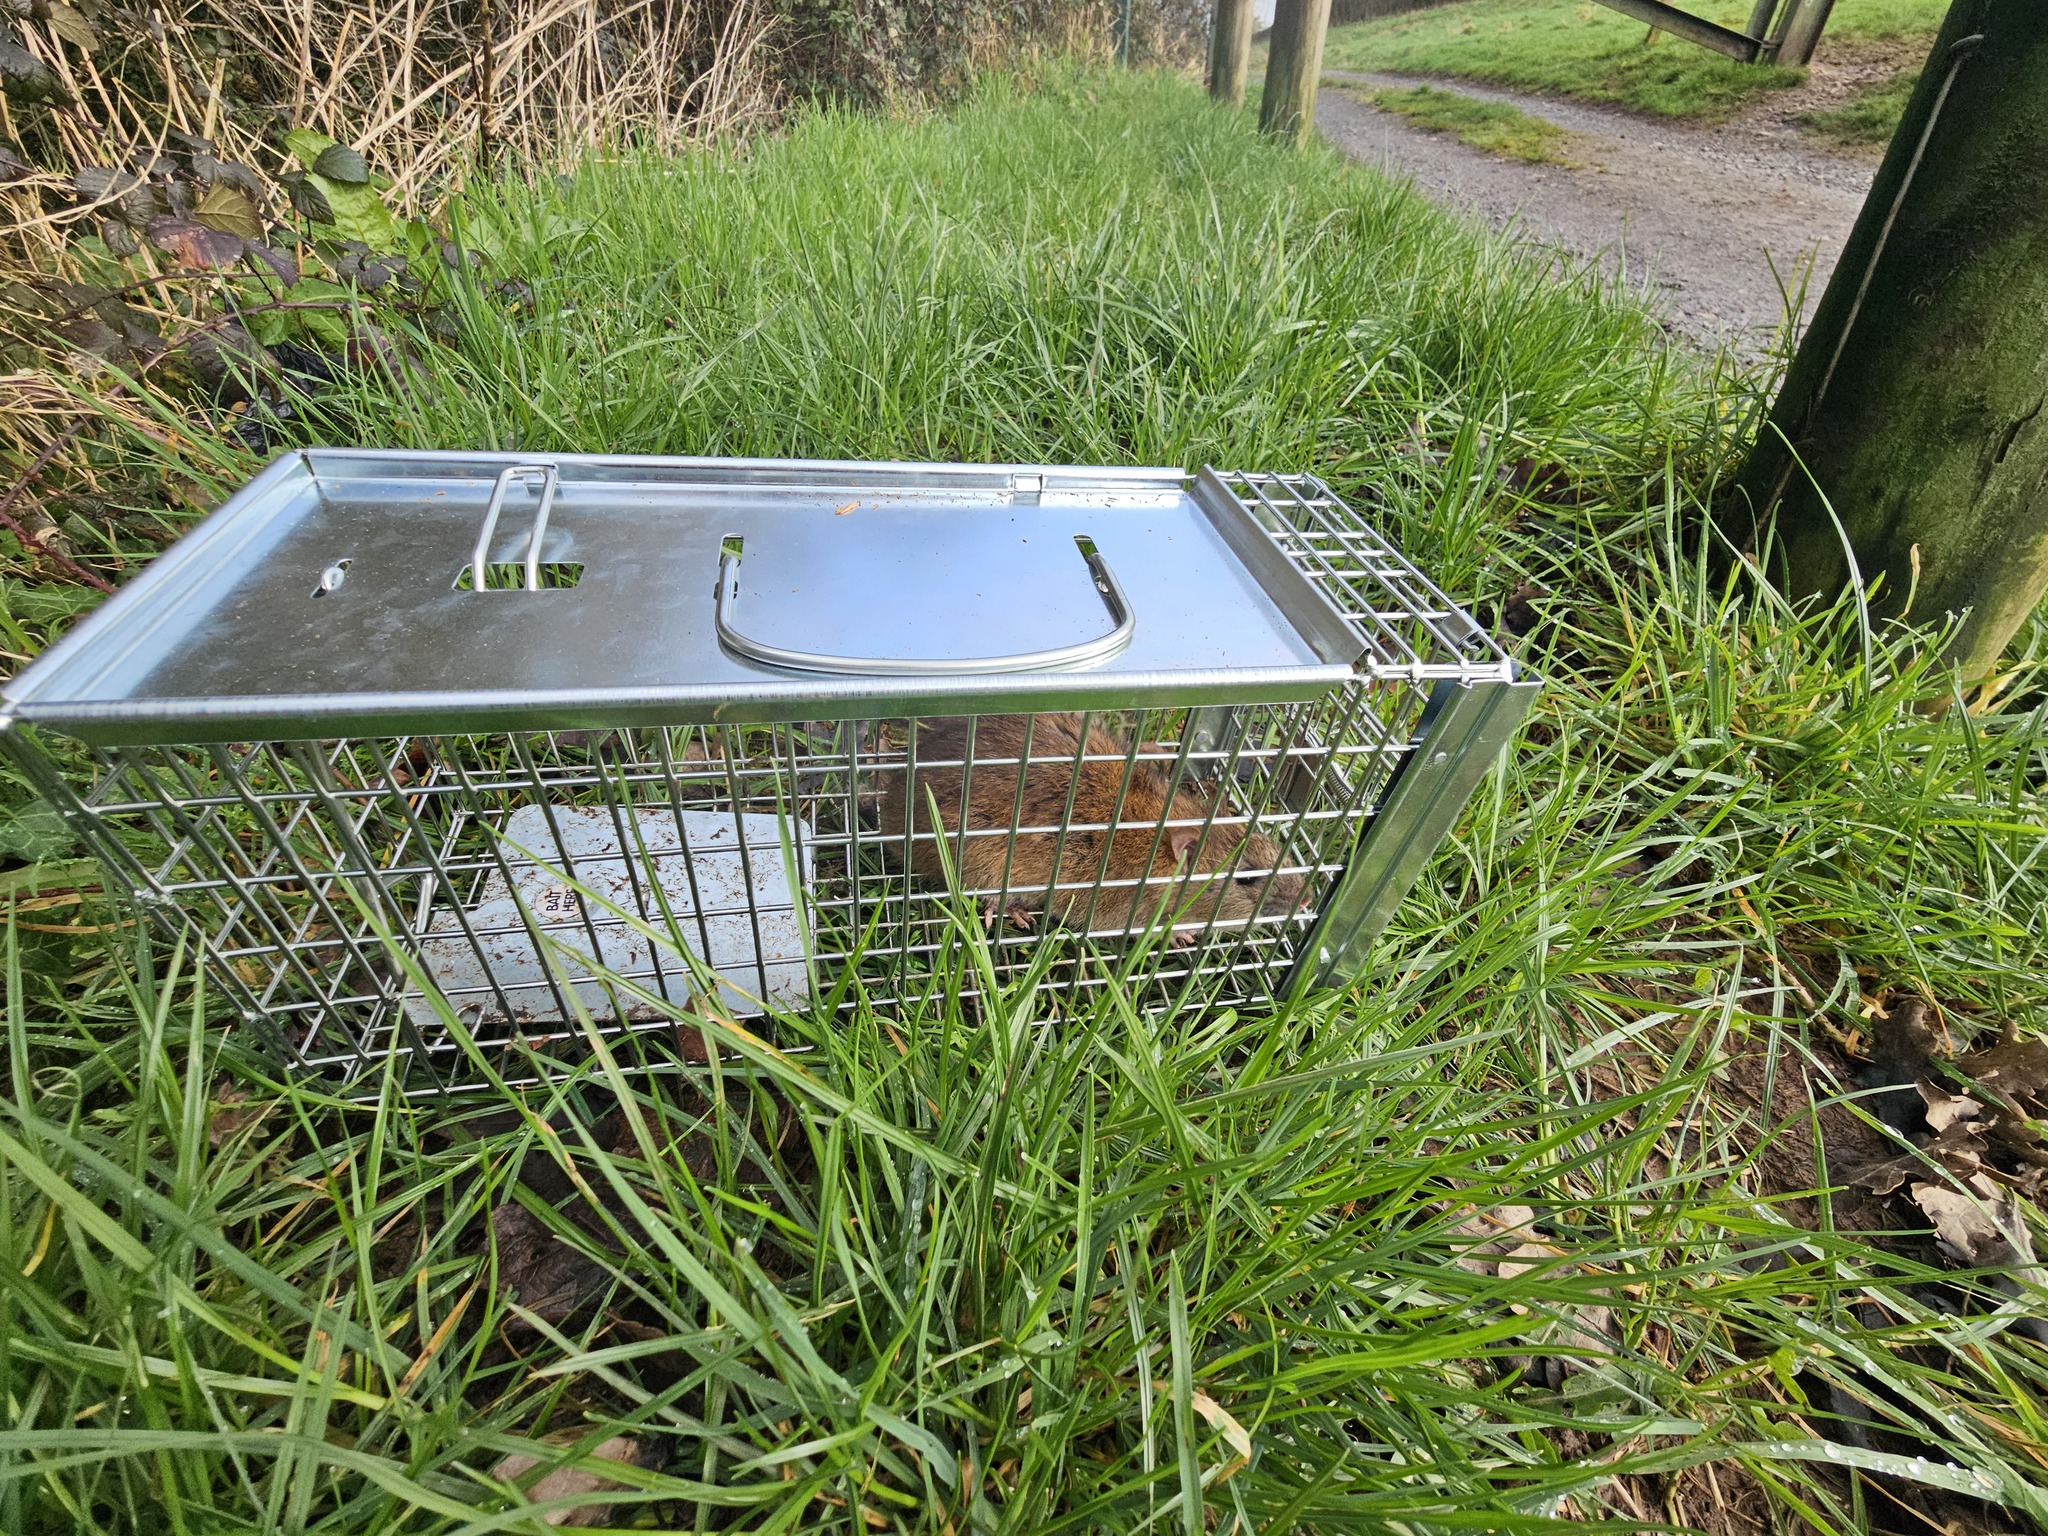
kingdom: Animalia
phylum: Chordata
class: Mammalia
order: Rodentia
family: Muridae
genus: Rattus
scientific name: Rattus norvegicus
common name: Brown rat
